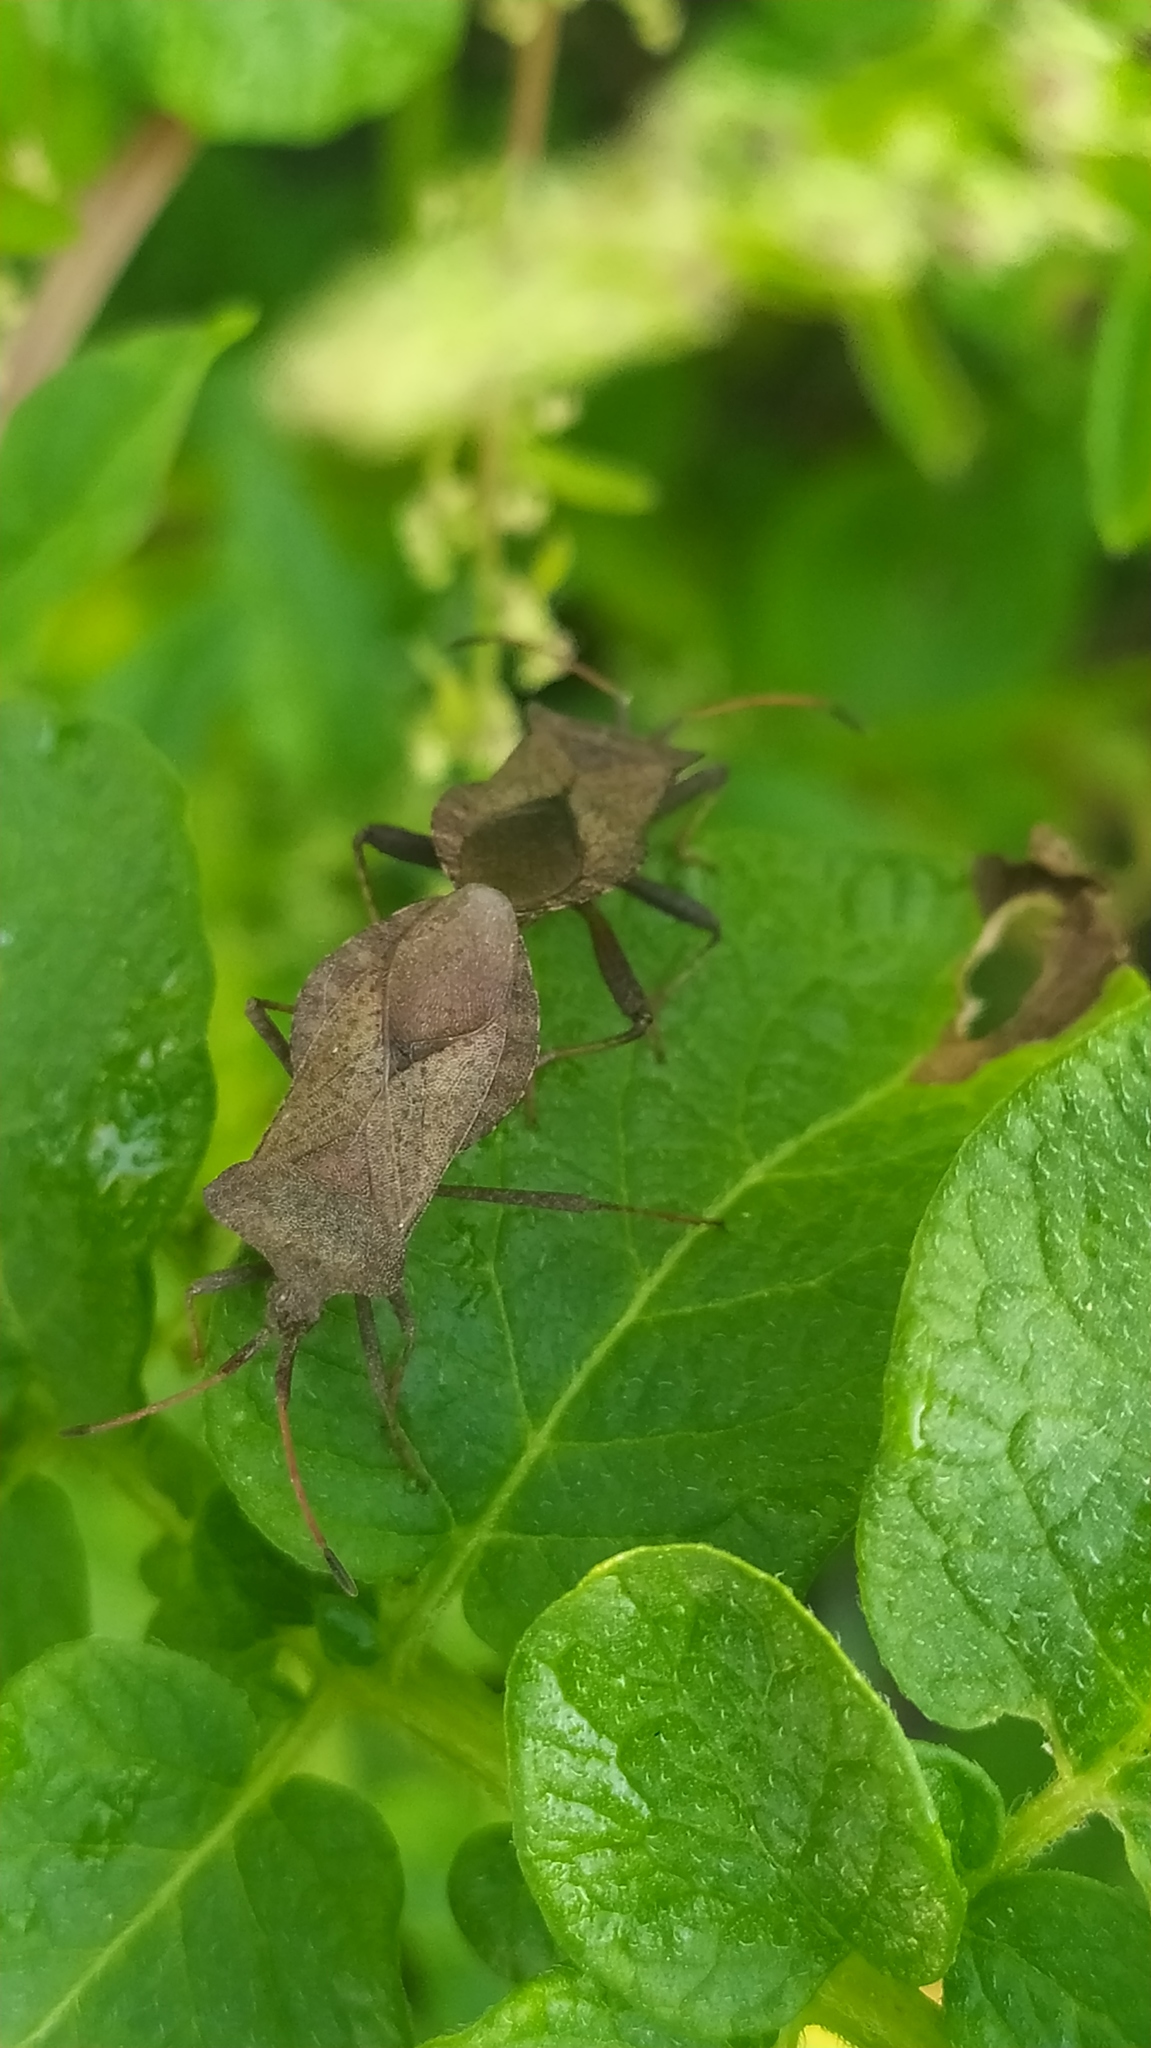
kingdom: Animalia
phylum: Arthropoda
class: Insecta
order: Hemiptera
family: Coreidae
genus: Coreus
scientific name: Coreus marginatus
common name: Dock bug
